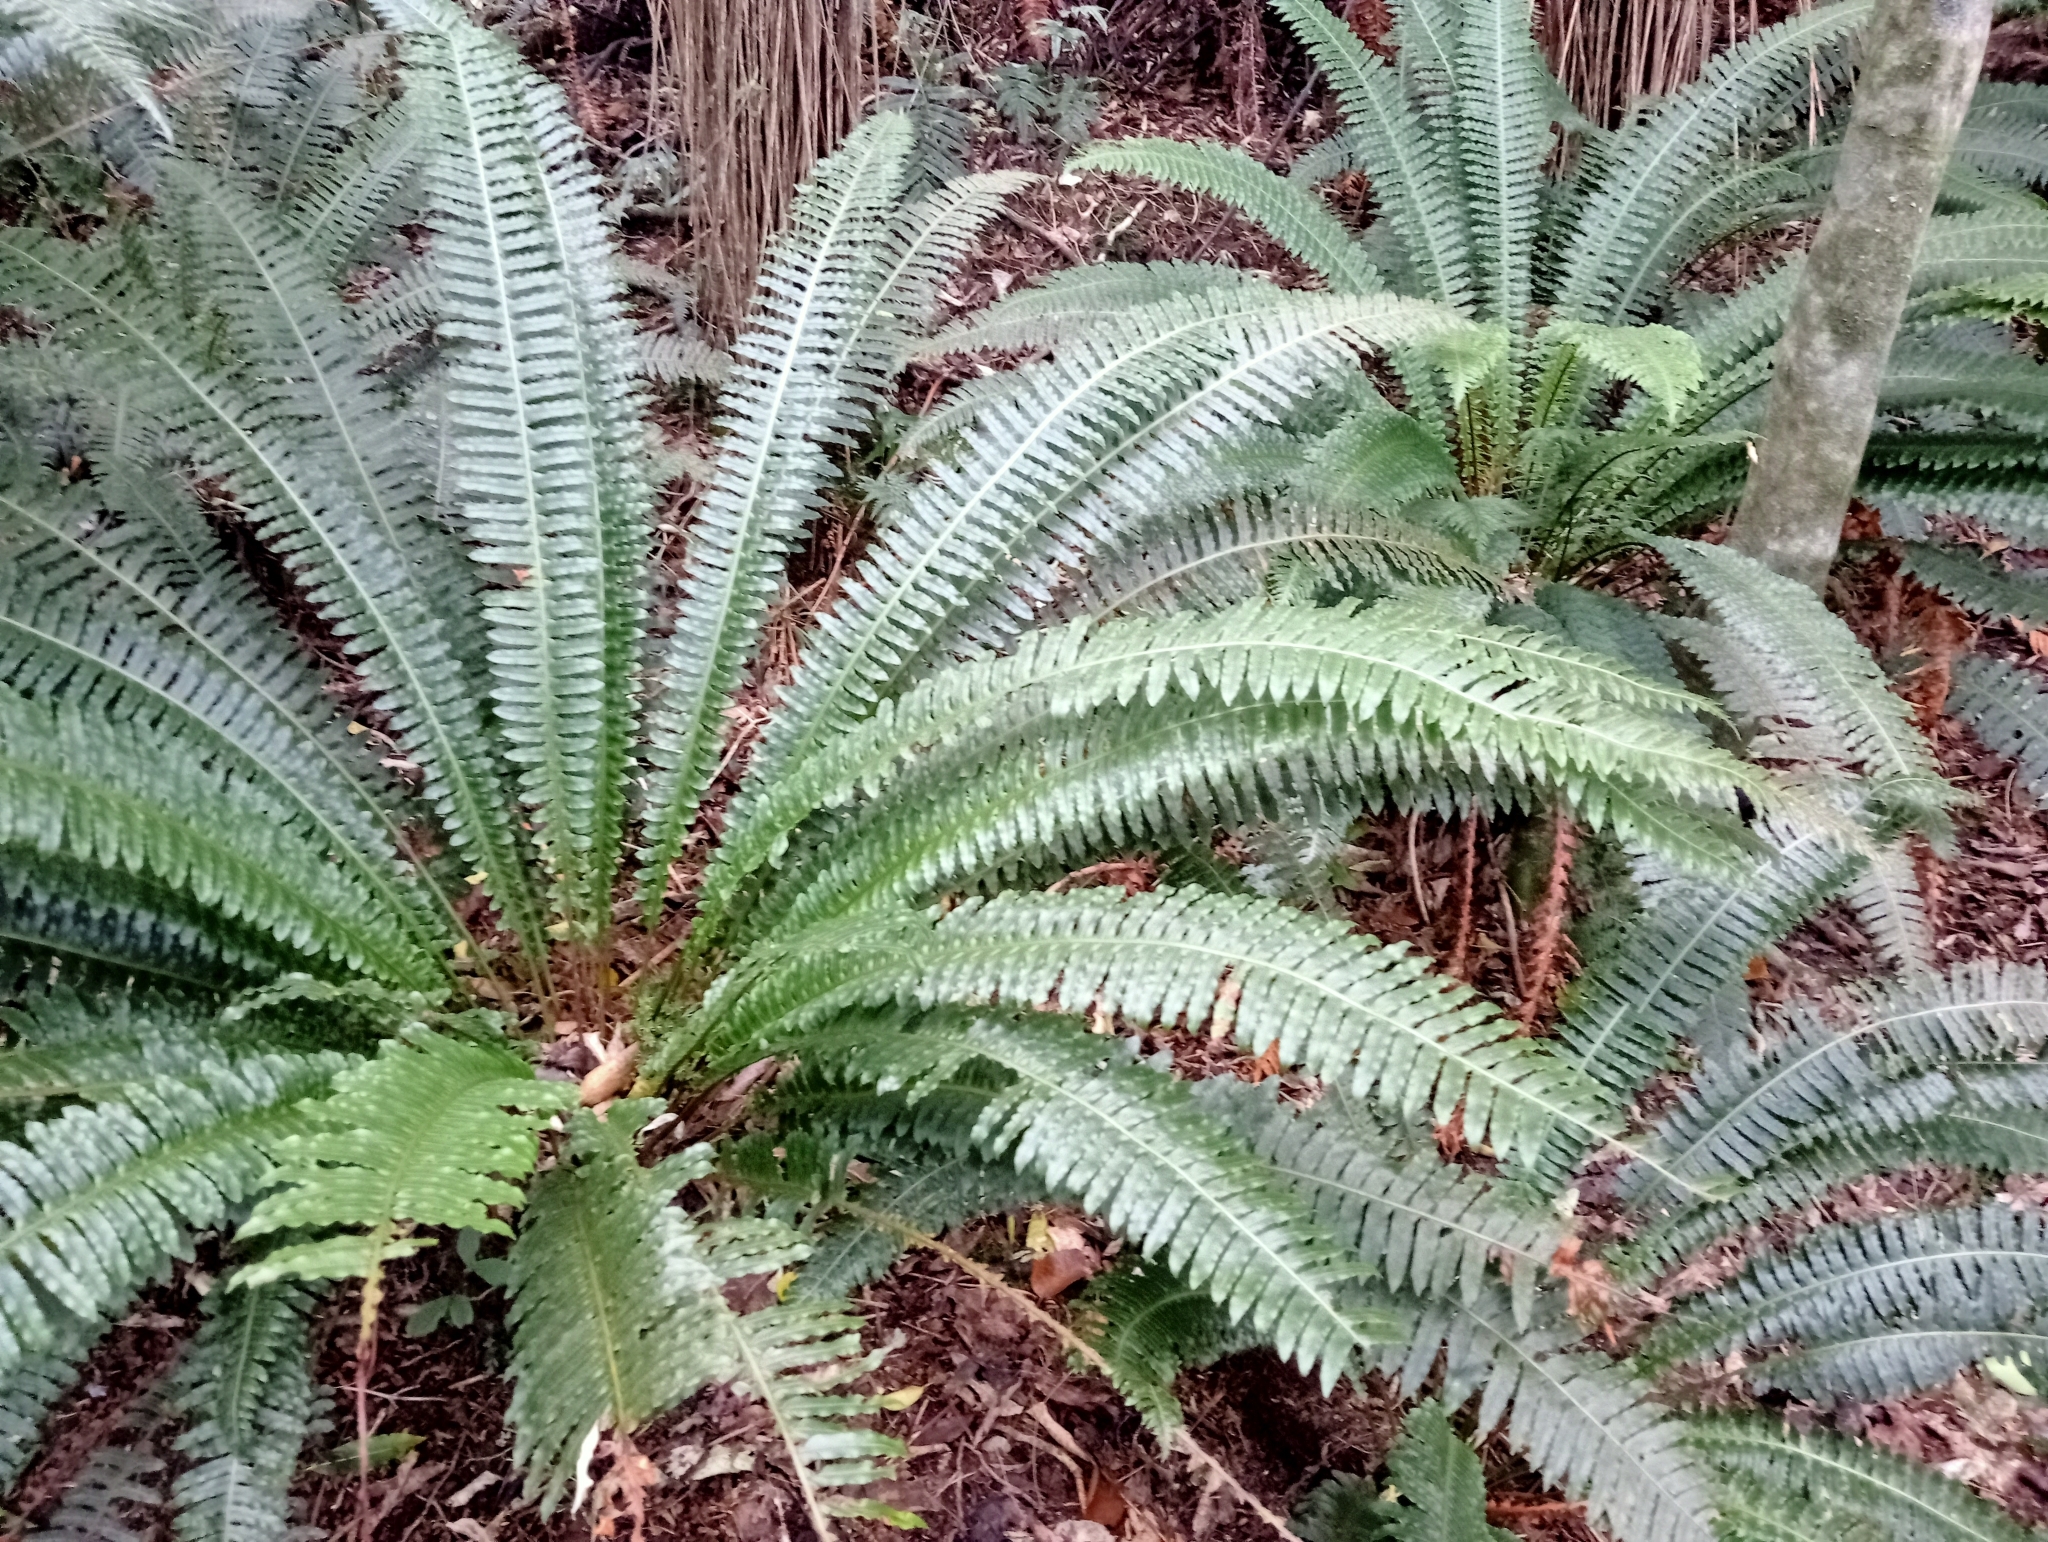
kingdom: Plantae
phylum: Tracheophyta
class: Polypodiopsida
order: Polypodiales
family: Blechnaceae
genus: Lomaria
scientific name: Lomaria discolor
